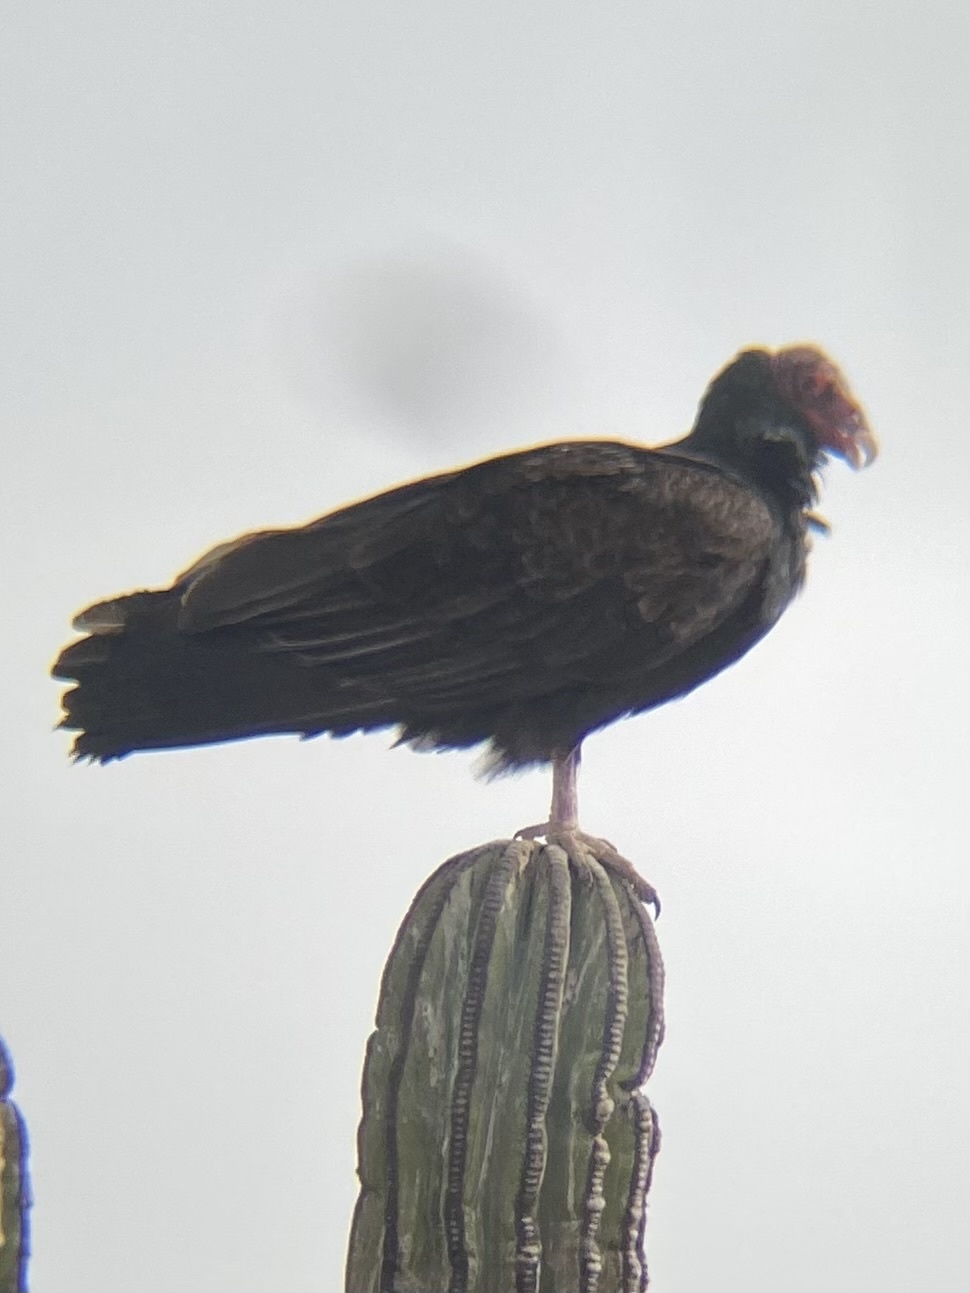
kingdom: Animalia
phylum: Chordata
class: Aves
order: Accipitriformes
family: Cathartidae
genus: Cathartes
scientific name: Cathartes aura
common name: Turkey vulture
